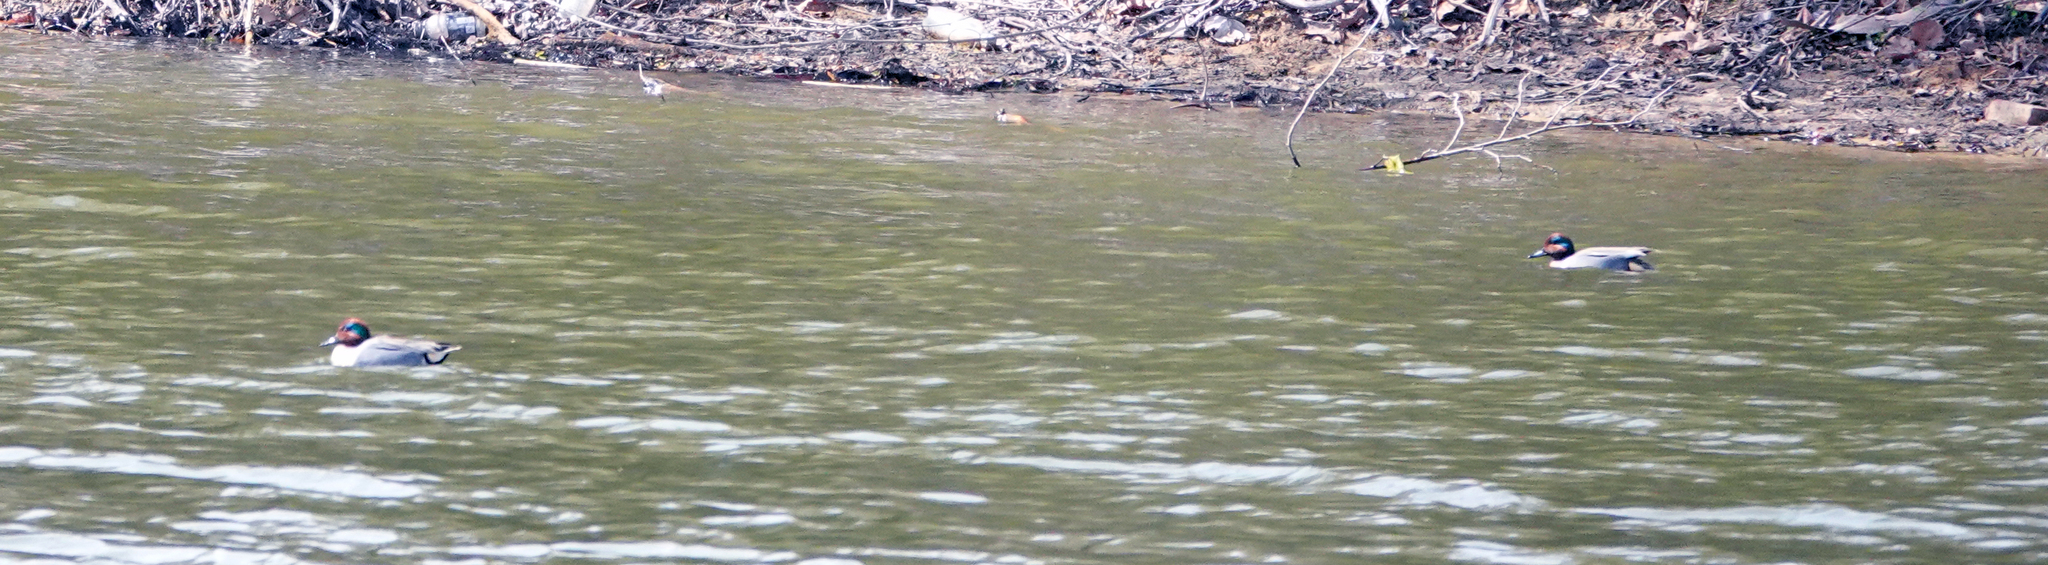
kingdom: Animalia
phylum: Chordata
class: Aves
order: Anseriformes
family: Anatidae
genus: Anas
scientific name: Anas crecca
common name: Eurasian teal
